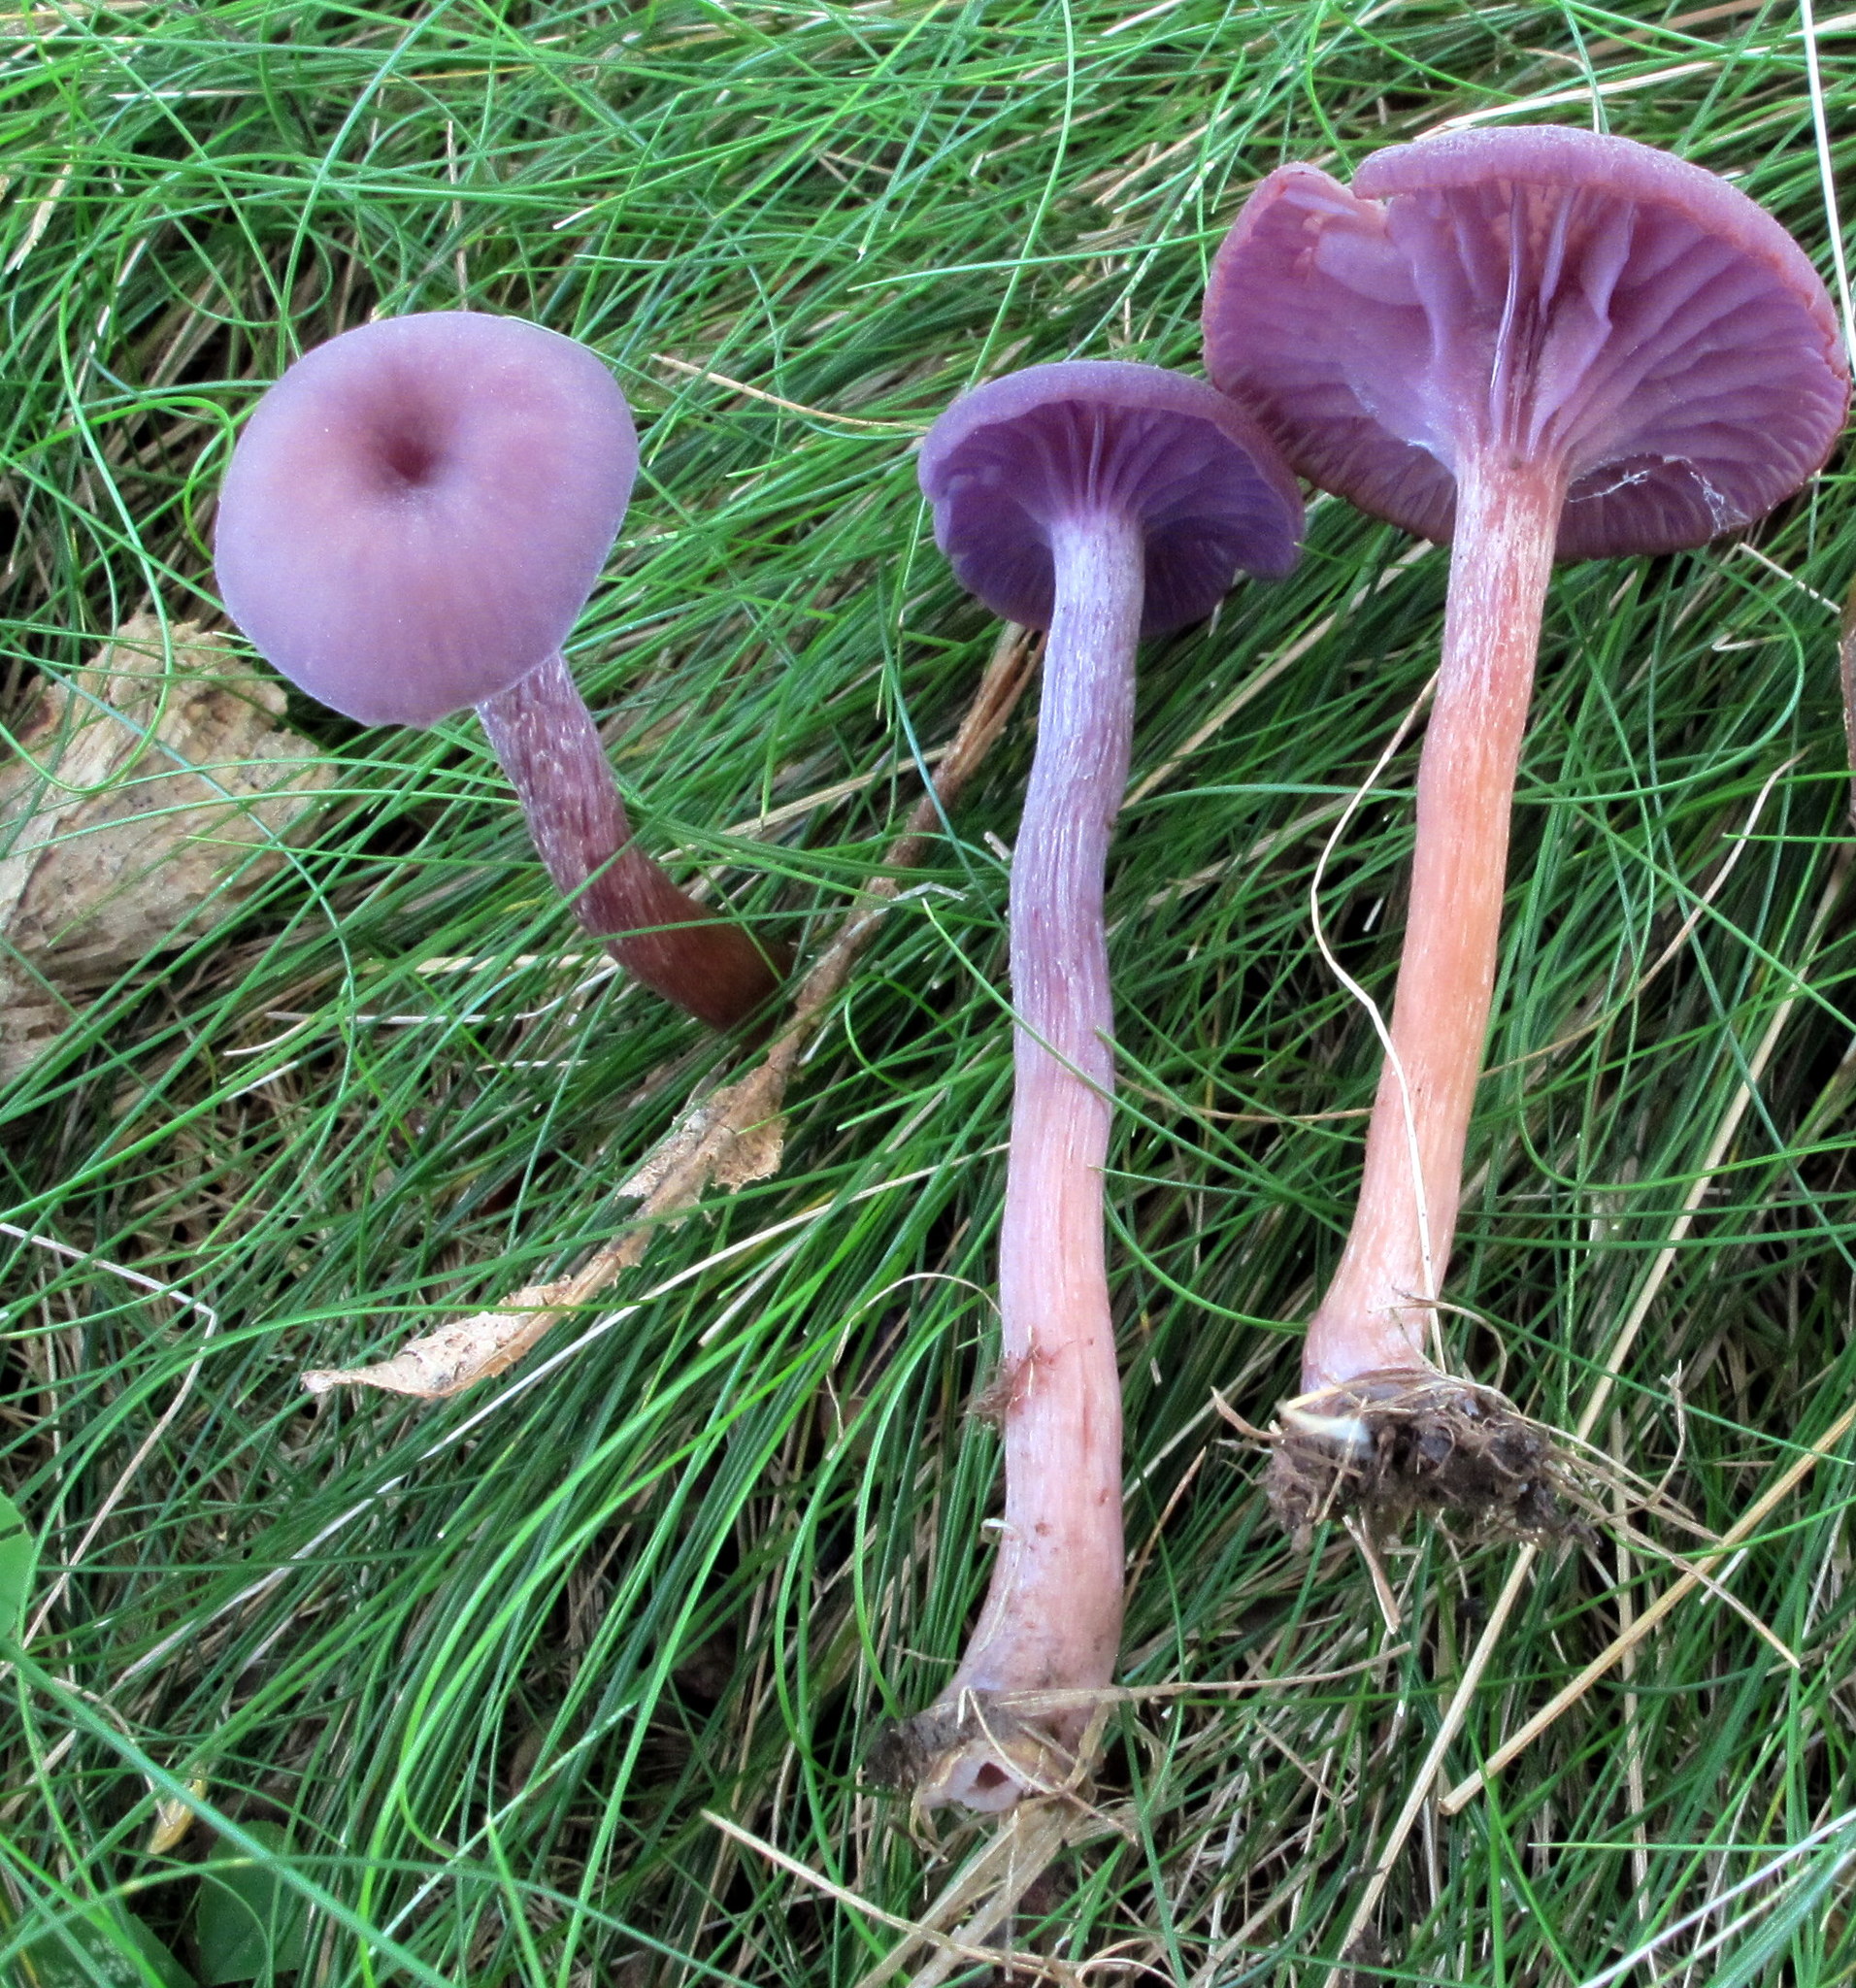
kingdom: Fungi
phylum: Basidiomycota
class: Agaricomycetes
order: Agaricales
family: Hydnangiaceae
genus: Laccaria
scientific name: Laccaria amethystina
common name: Amethyst deceiver
